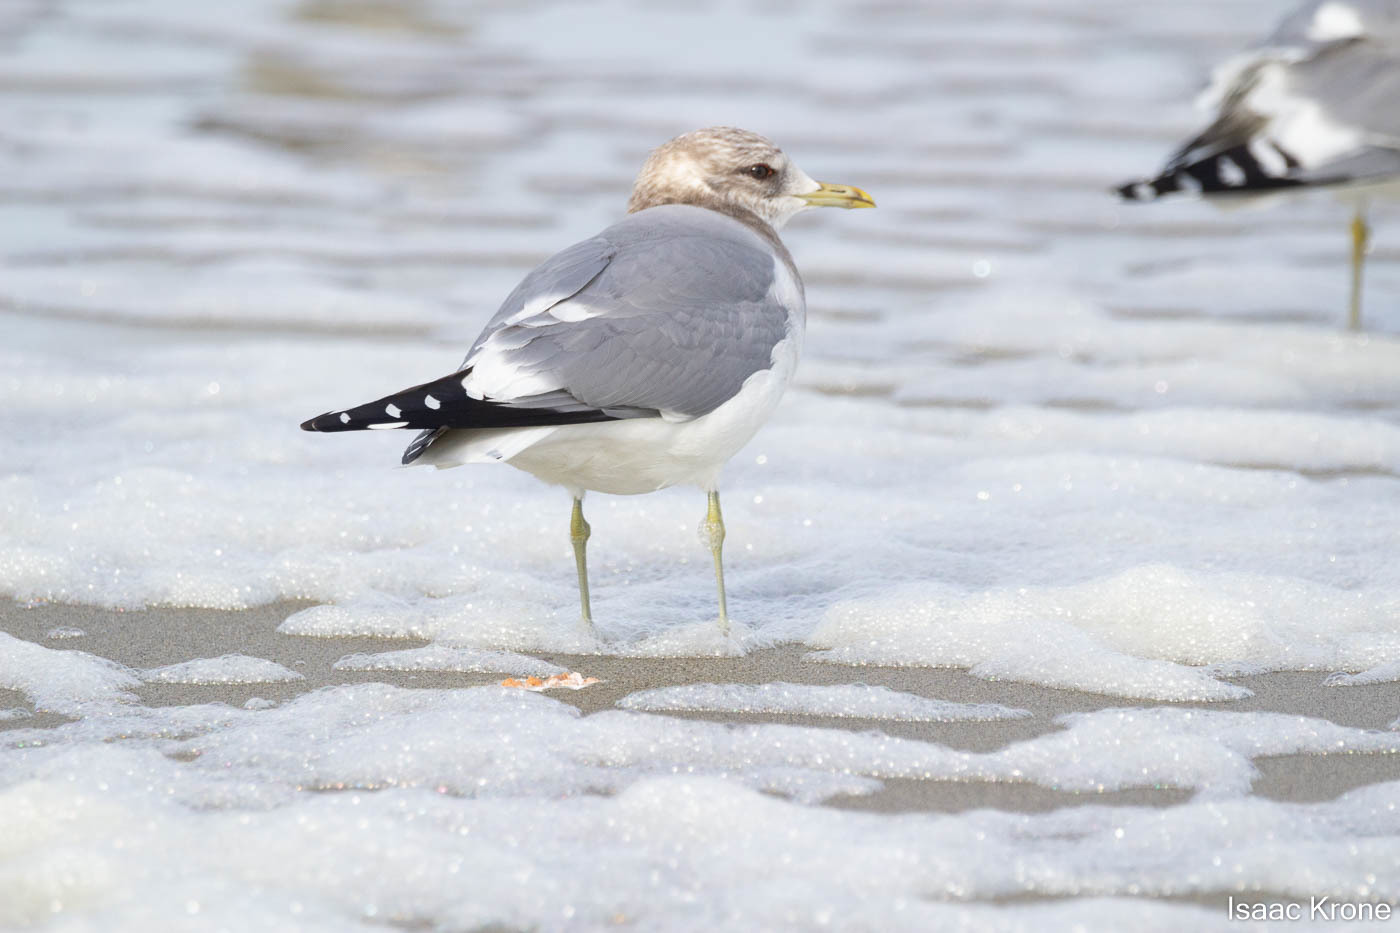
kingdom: Animalia
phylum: Chordata
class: Aves
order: Charadriiformes
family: Laridae
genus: Larus
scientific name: Larus brachyrhynchus
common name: Short-billed gull
